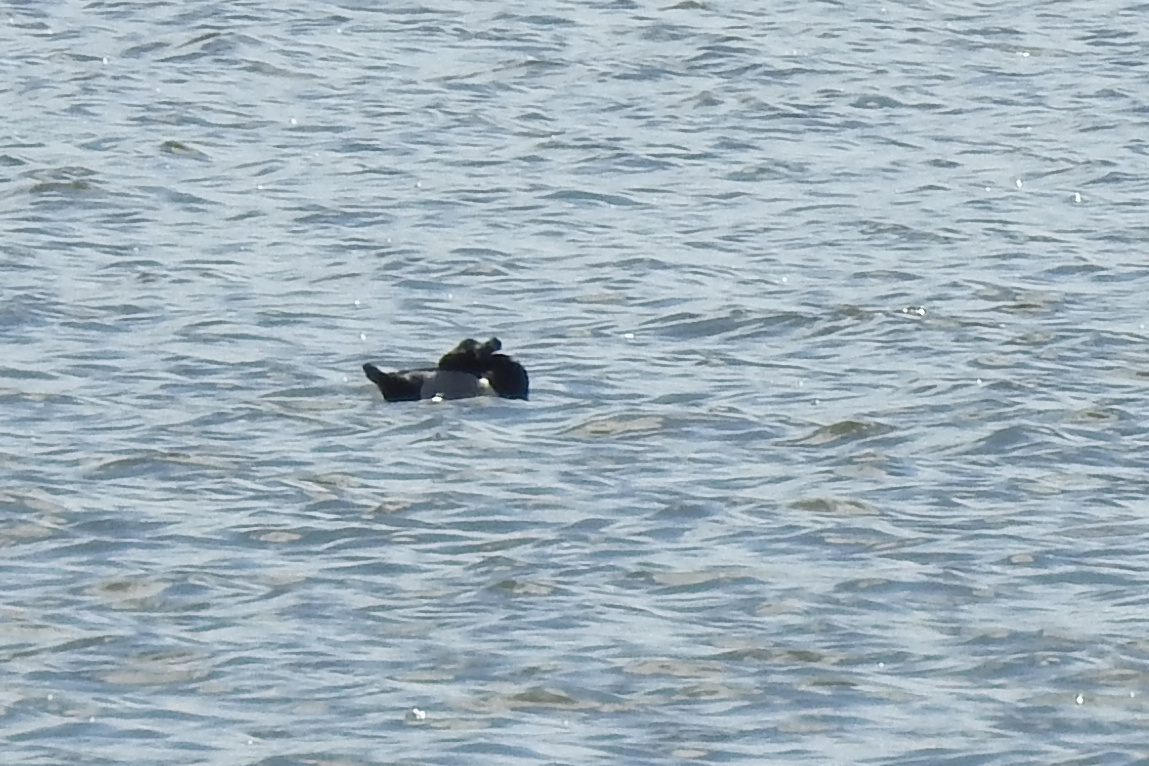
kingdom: Animalia
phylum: Chordata
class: Aves
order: Anseriformes
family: Anatidae
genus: Aythya
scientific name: Aythya collaris
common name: Ring-necked duck
